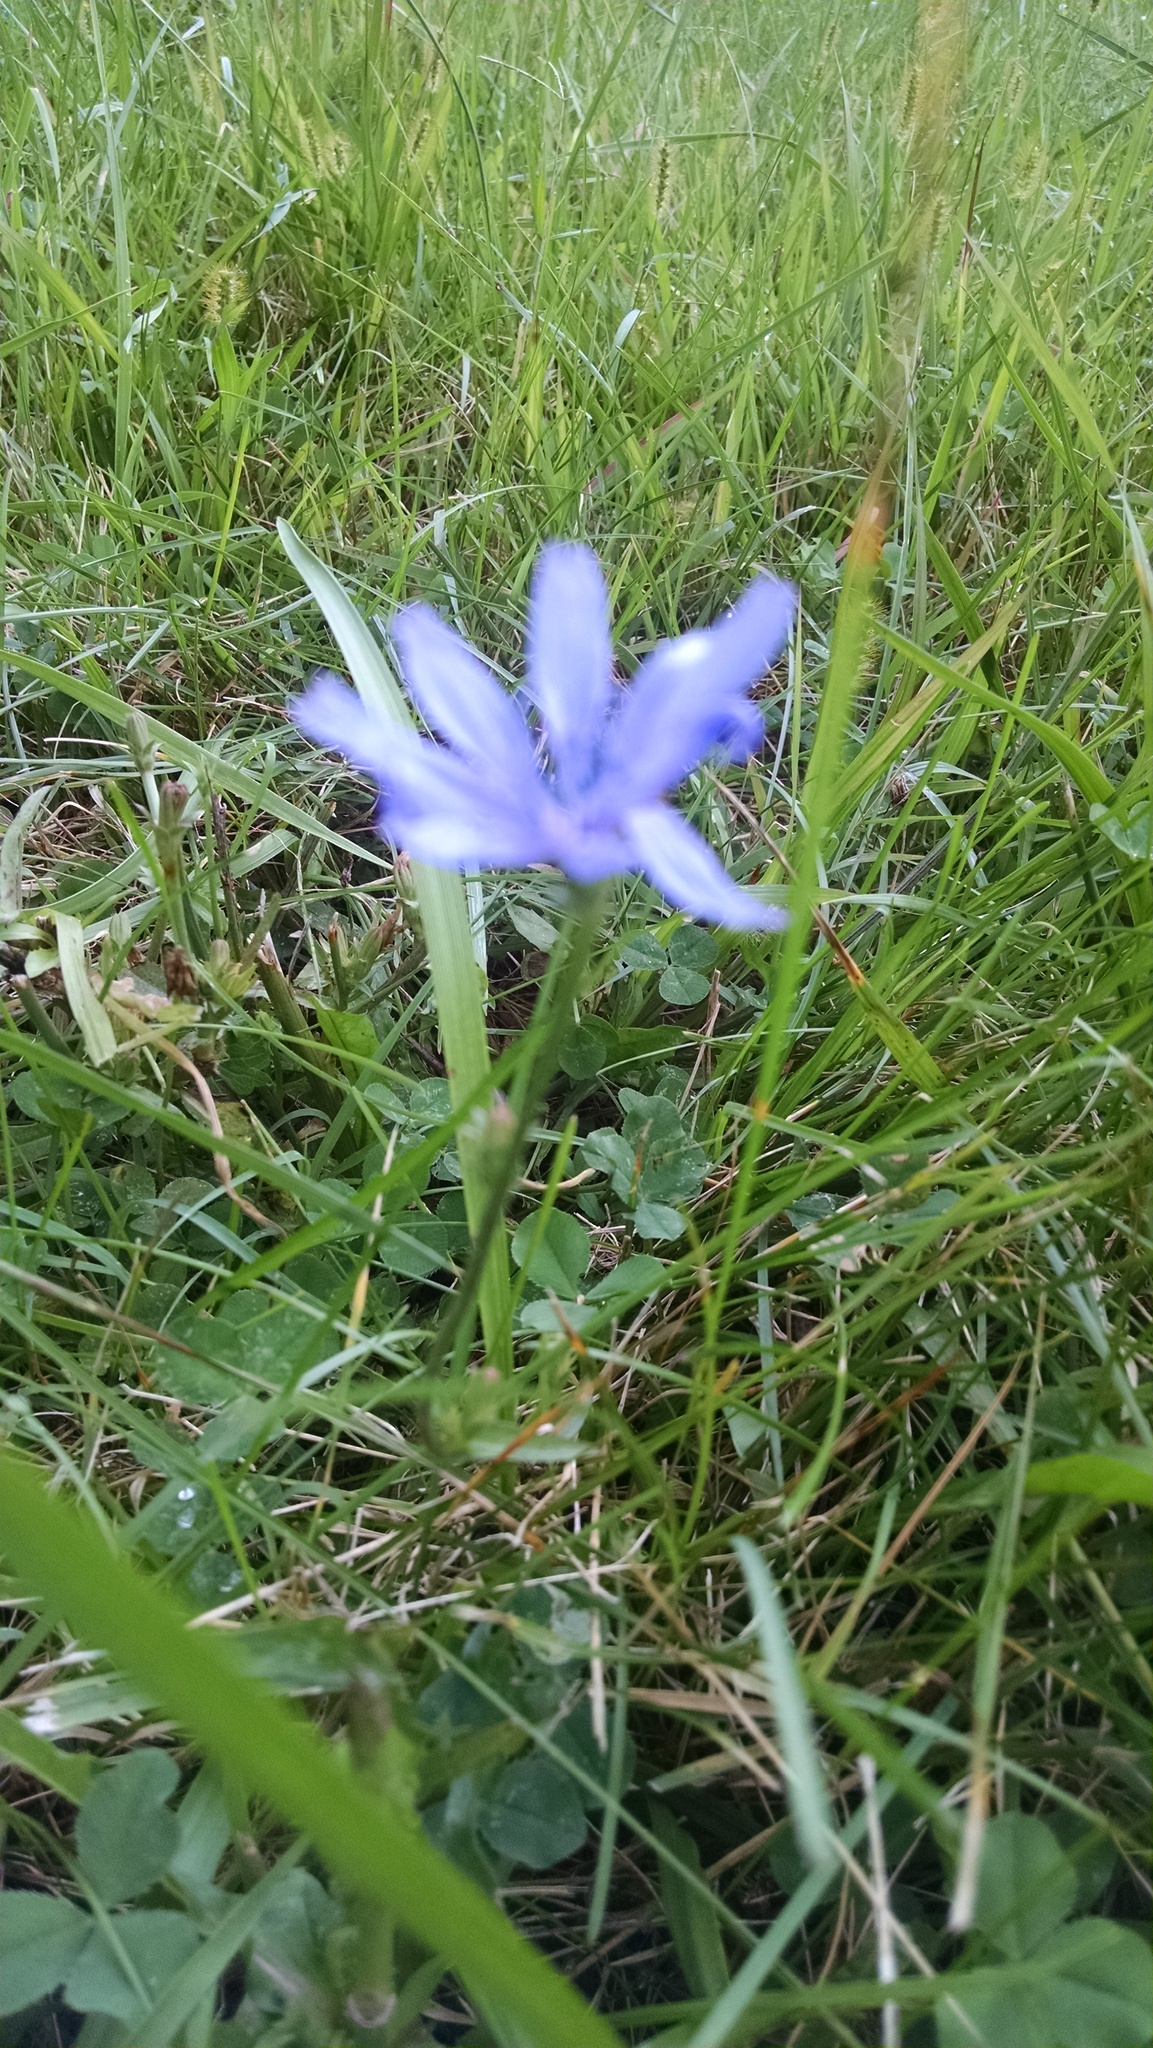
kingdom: Plantae
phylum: Tracheophyta
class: Magnoliopsida
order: Asterales
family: Asteraceae
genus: Cichorium
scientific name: Cichorium intybus
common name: Chicory
